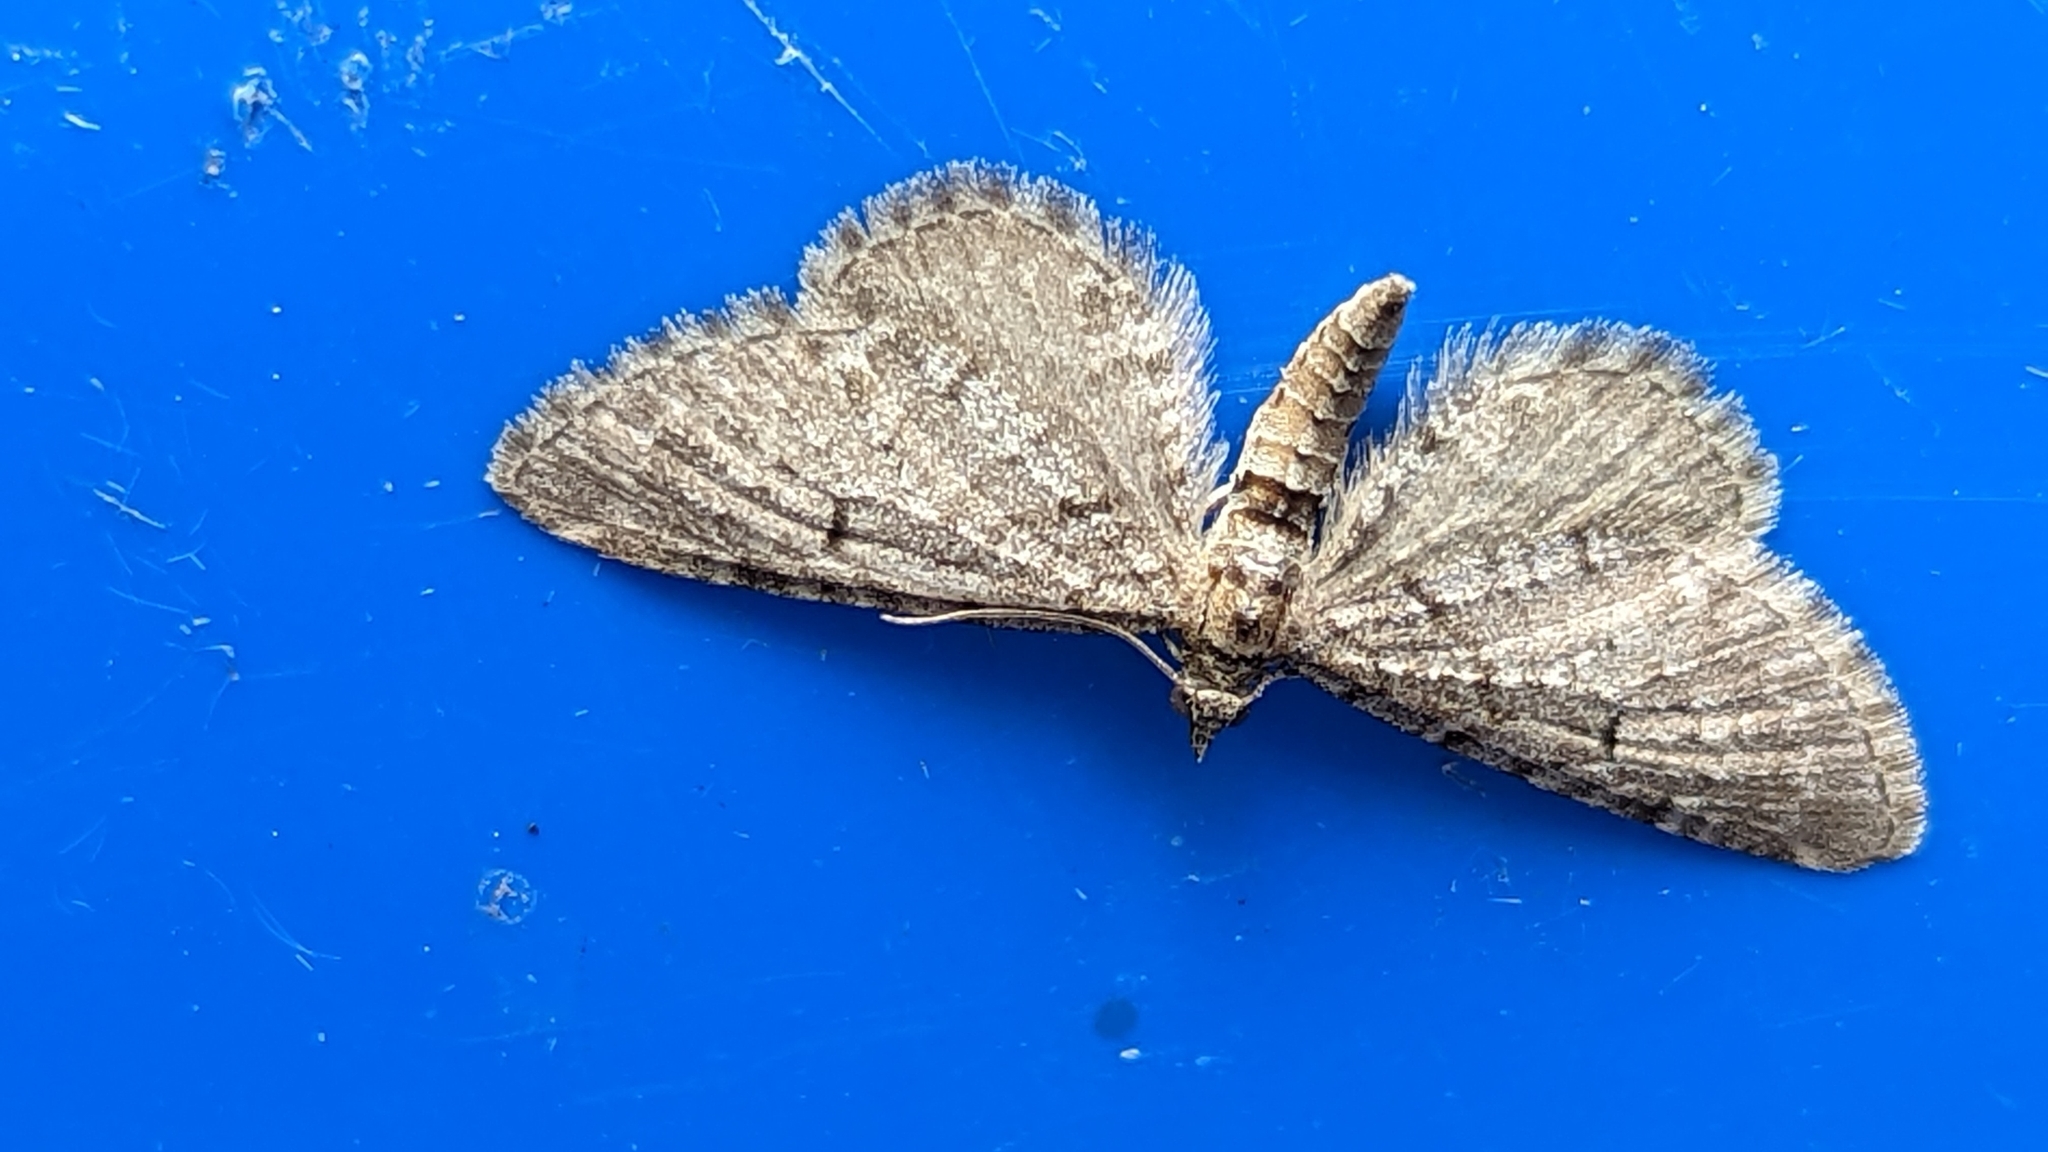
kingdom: Animalia
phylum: Arthropoda
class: Insecta
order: Lepidoptera
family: Geometridae
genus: Eupithecia
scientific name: Eupithecia intricata
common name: Freyers pug
